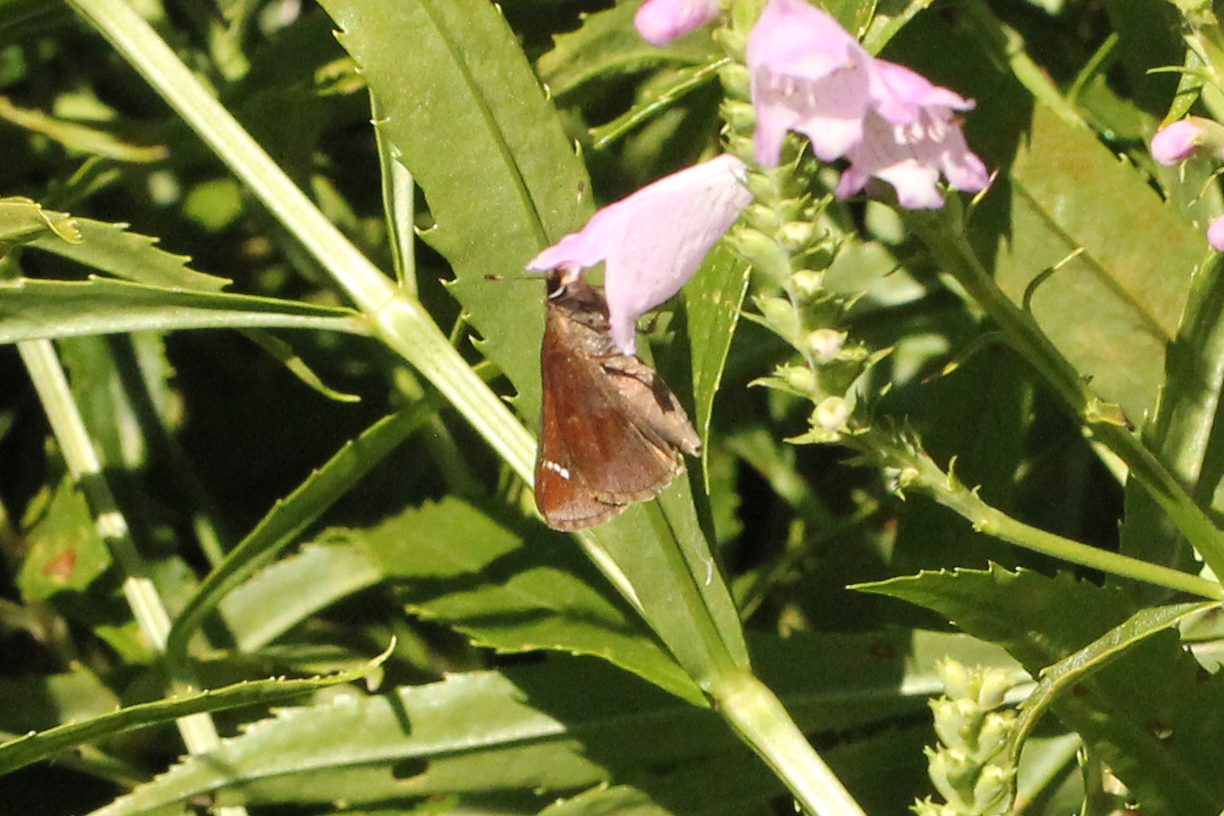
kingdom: Animalia
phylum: Arthropoda
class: Insecta
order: Lepidoptera
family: Hesperiidae
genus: Lerema
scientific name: Lerema accius
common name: Clouded skipper
